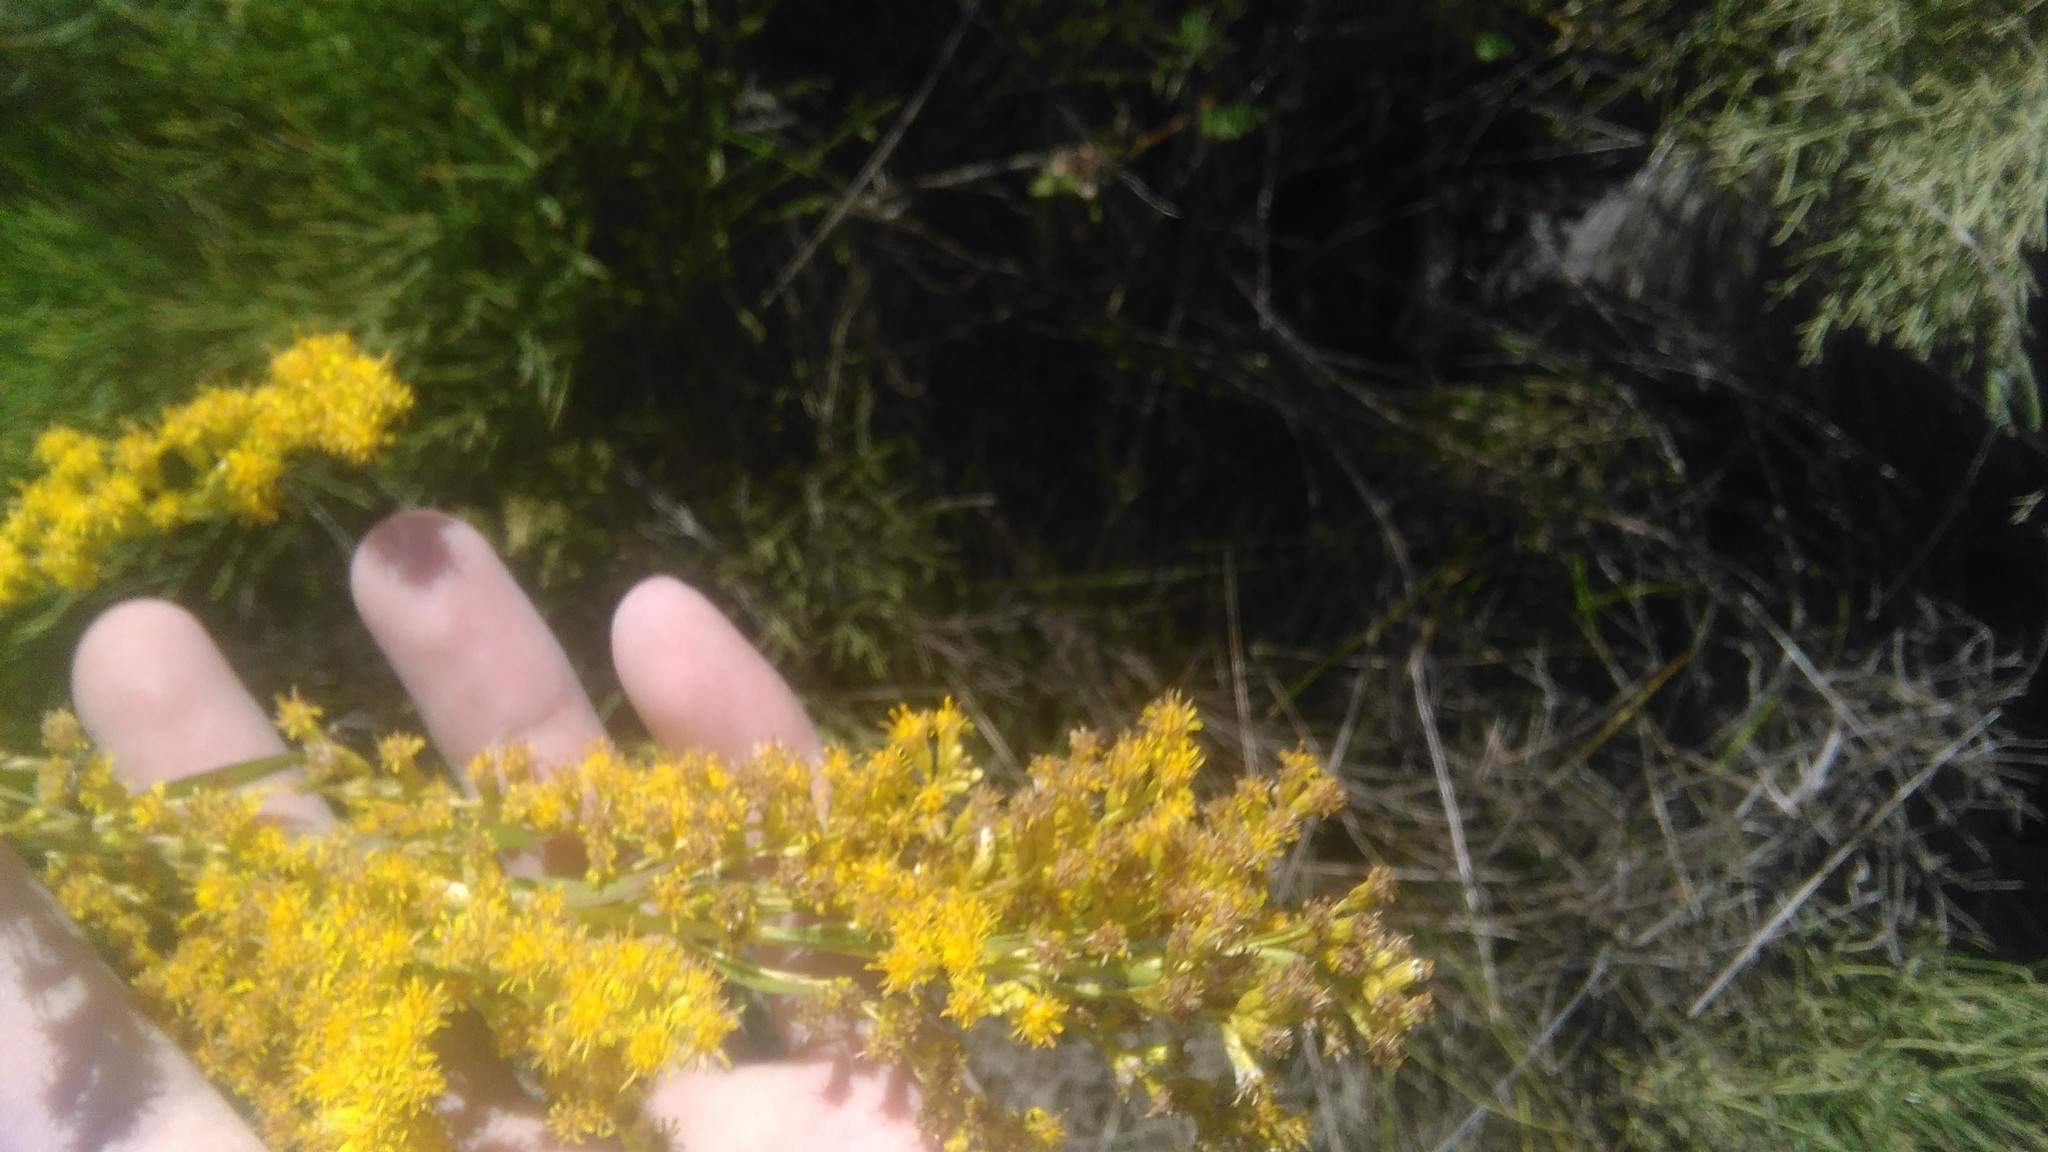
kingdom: Plantae
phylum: Tracheophyta
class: Magnoliopsida
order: Asterales
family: Asteraceae
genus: Solidago
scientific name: Solidago chilensis
